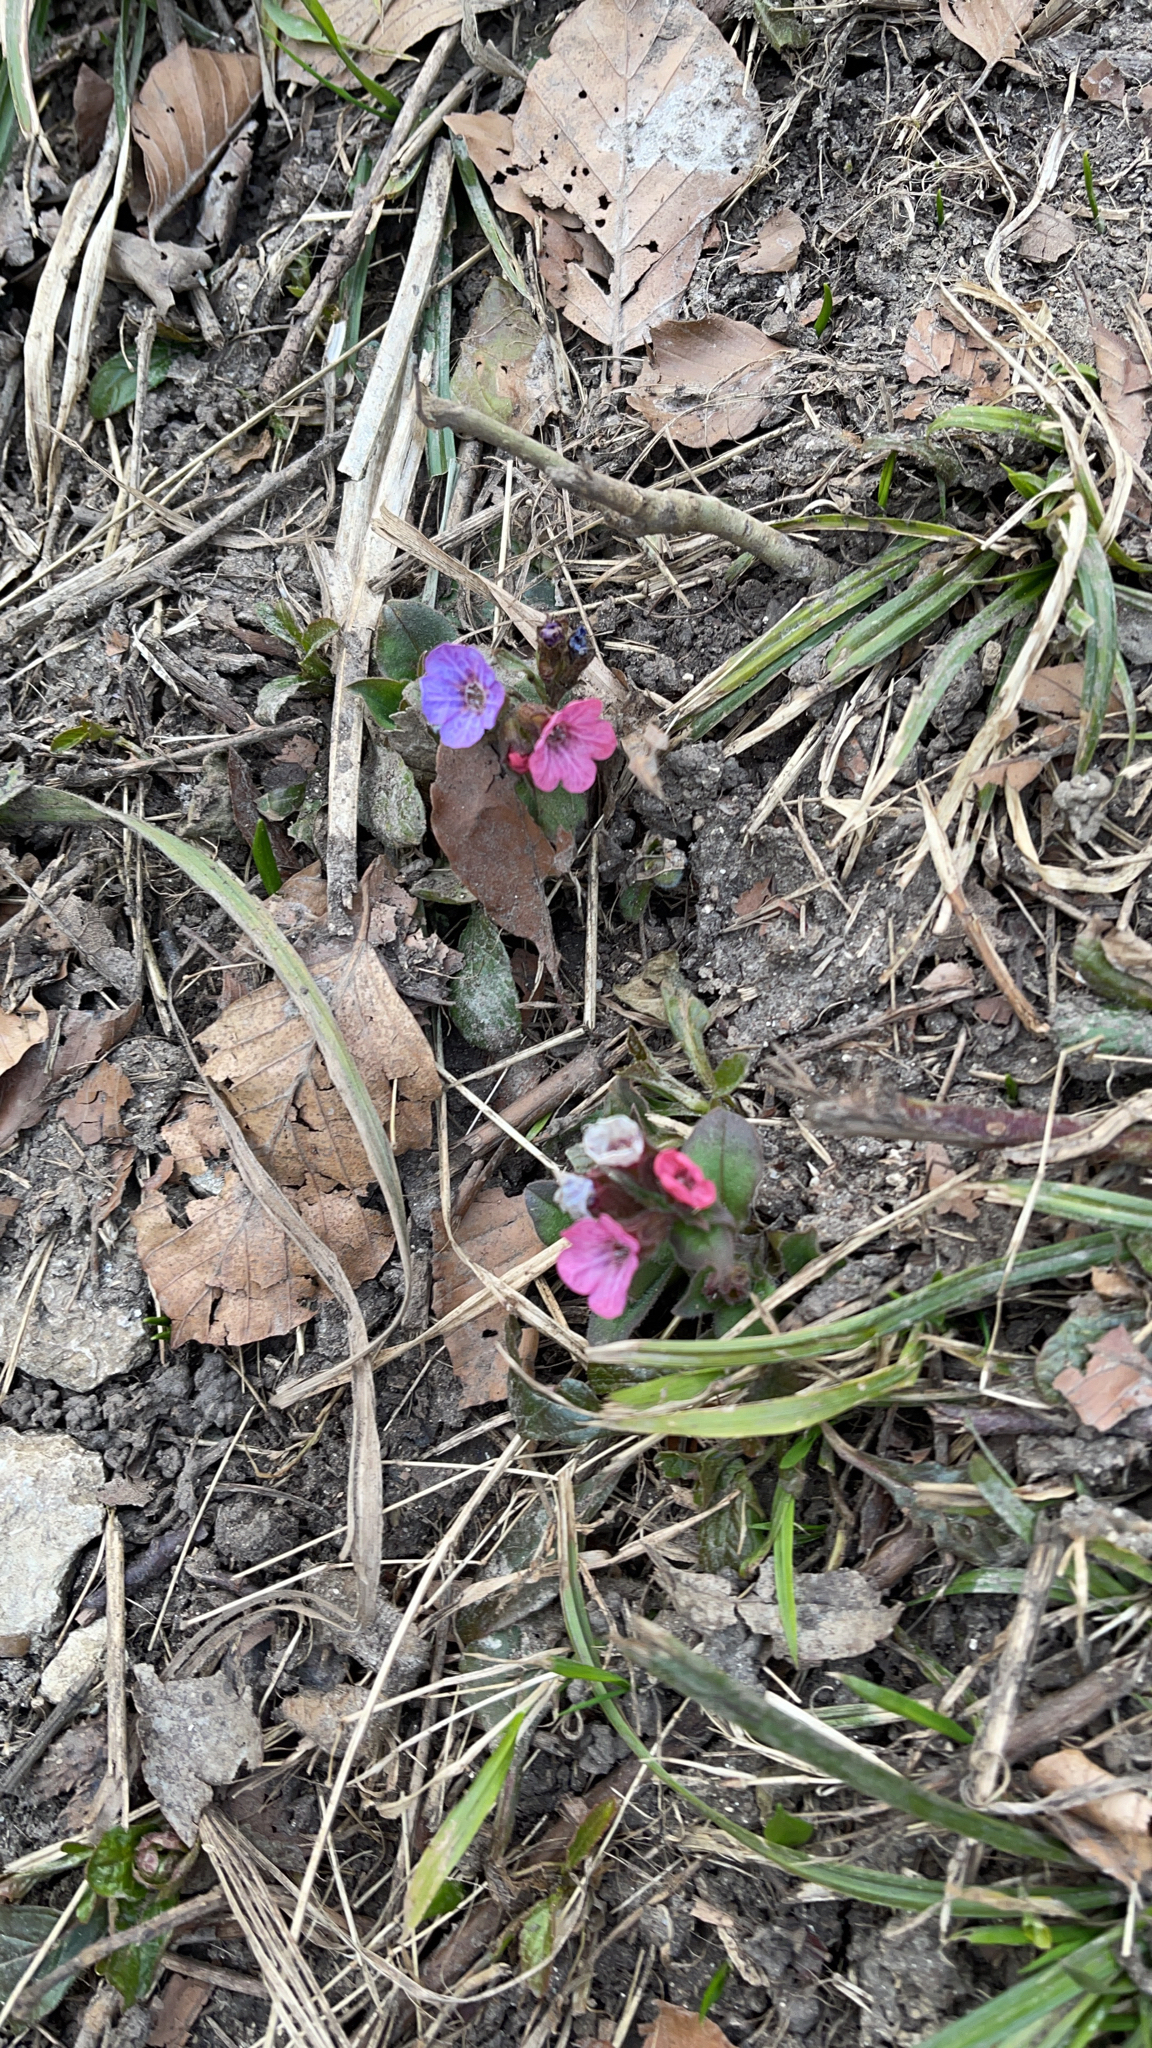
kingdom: Plantae
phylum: Tracheophyta
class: Magnoliopsida
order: Boraginales
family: Boraginaceae
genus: Pulmonaria
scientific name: Pulmonaria obscura
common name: Suffolk lungwort
